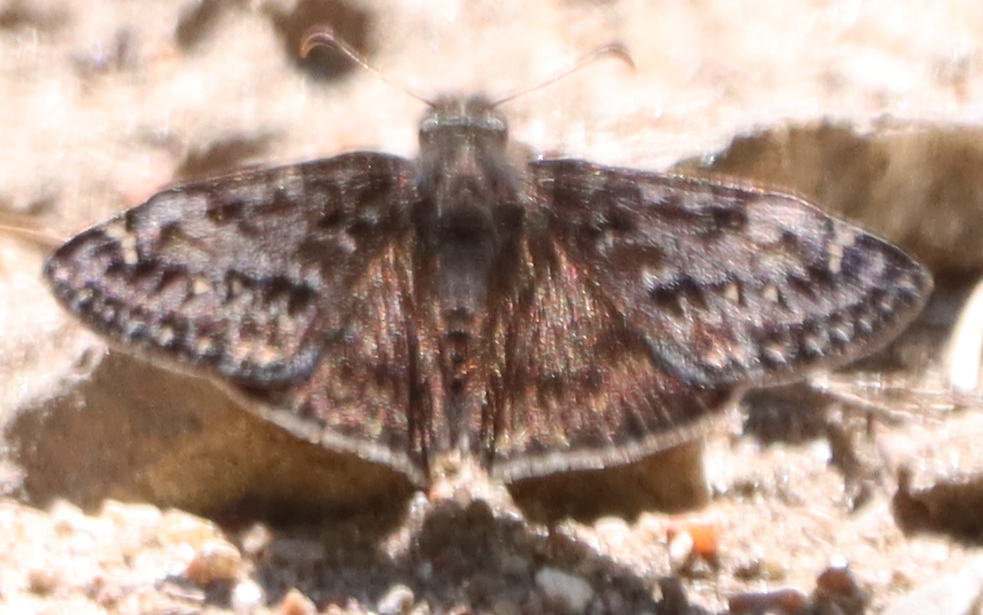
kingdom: Animalia
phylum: Arthropoda
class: Insecta
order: Lepidoptera
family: Hesperiidae
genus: Erynnis
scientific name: Erynnis juvenalis
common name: Juvenal's duskywing
